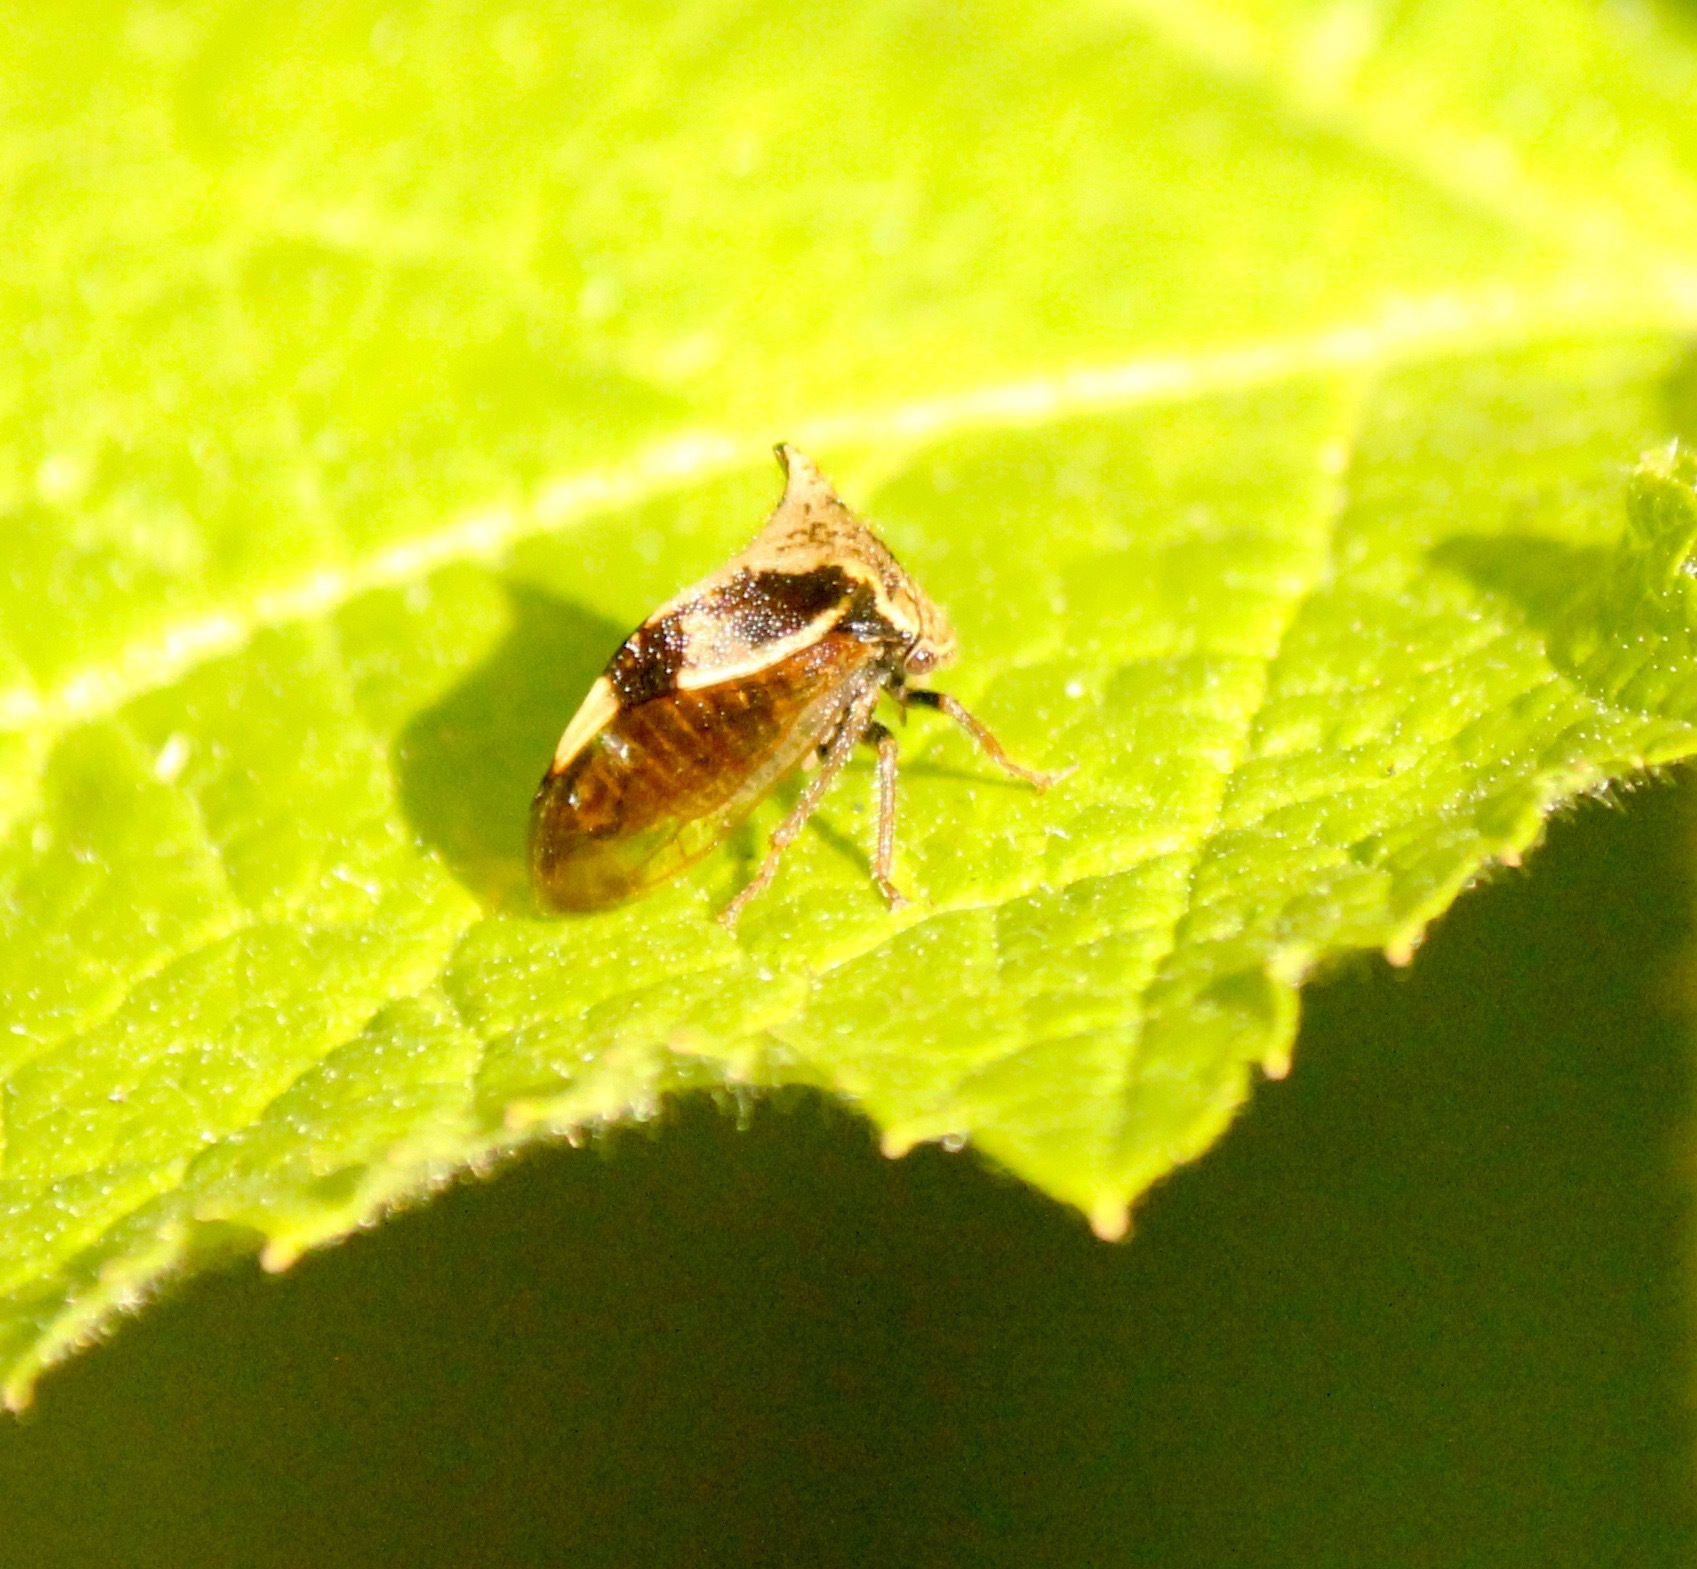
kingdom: Animalia
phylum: Arthropoda
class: Insecta
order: Hemiptera
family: Membracidae
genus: Stictocephala
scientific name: Stictocephala diceros
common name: Two-horned treehopper
